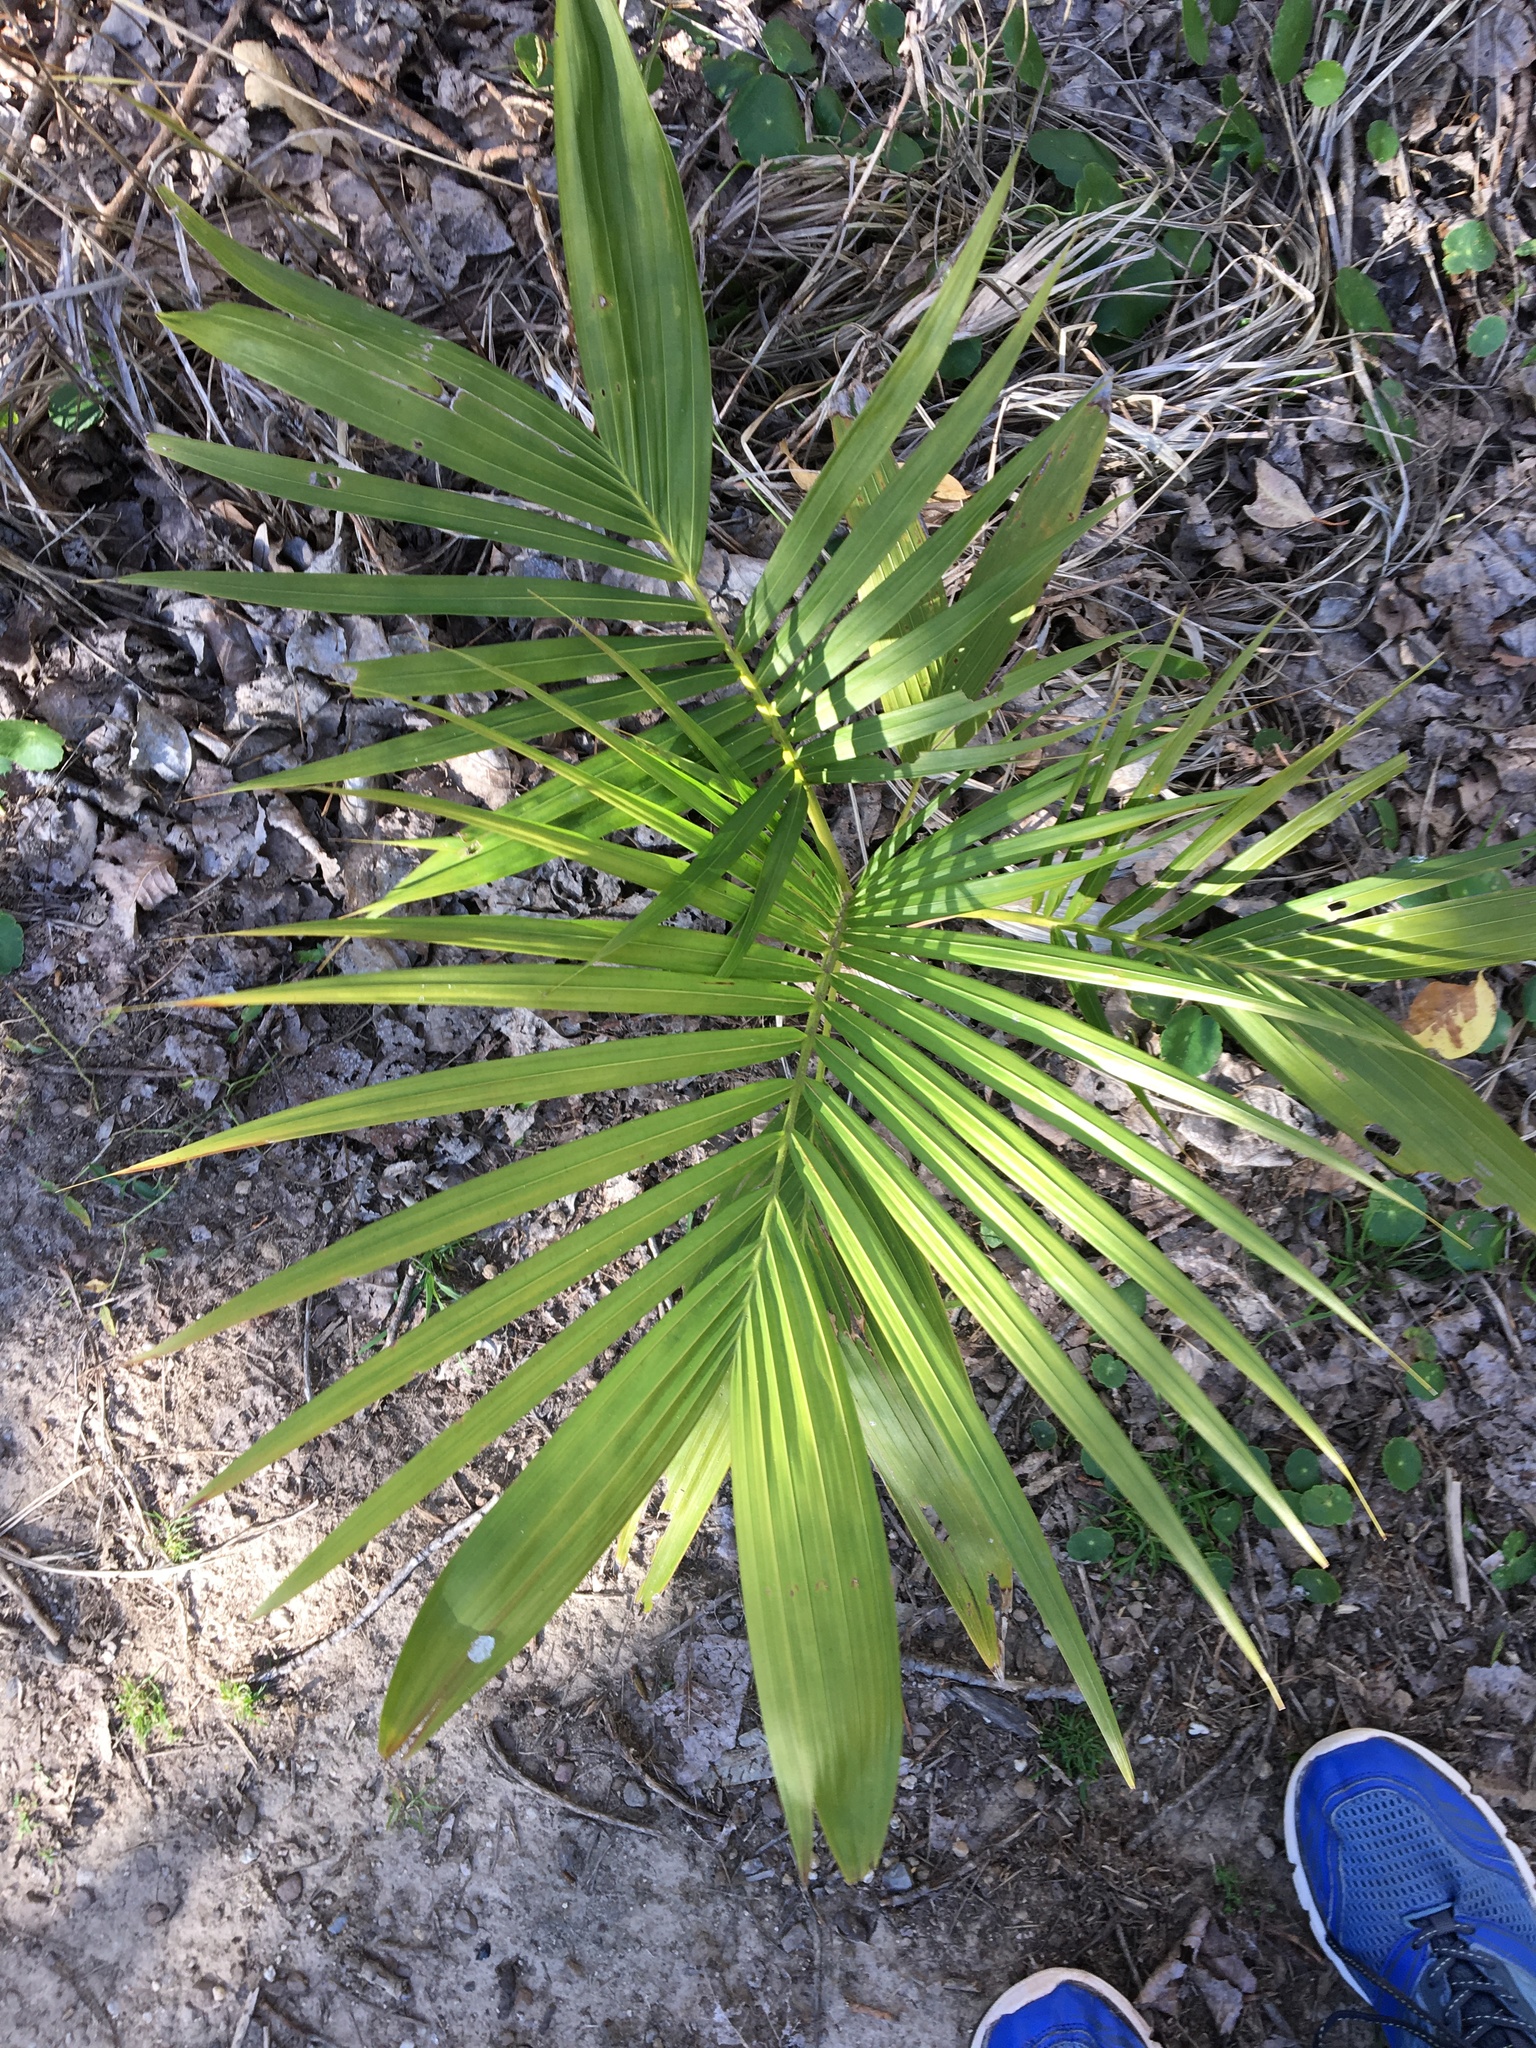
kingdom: Plantae
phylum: Tracheophyta
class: Liliopsida
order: Arecales
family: Arecaceae
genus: Archontophoenix
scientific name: Archontophoenix cunninghamiana
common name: Piccabeen bangalow palm
